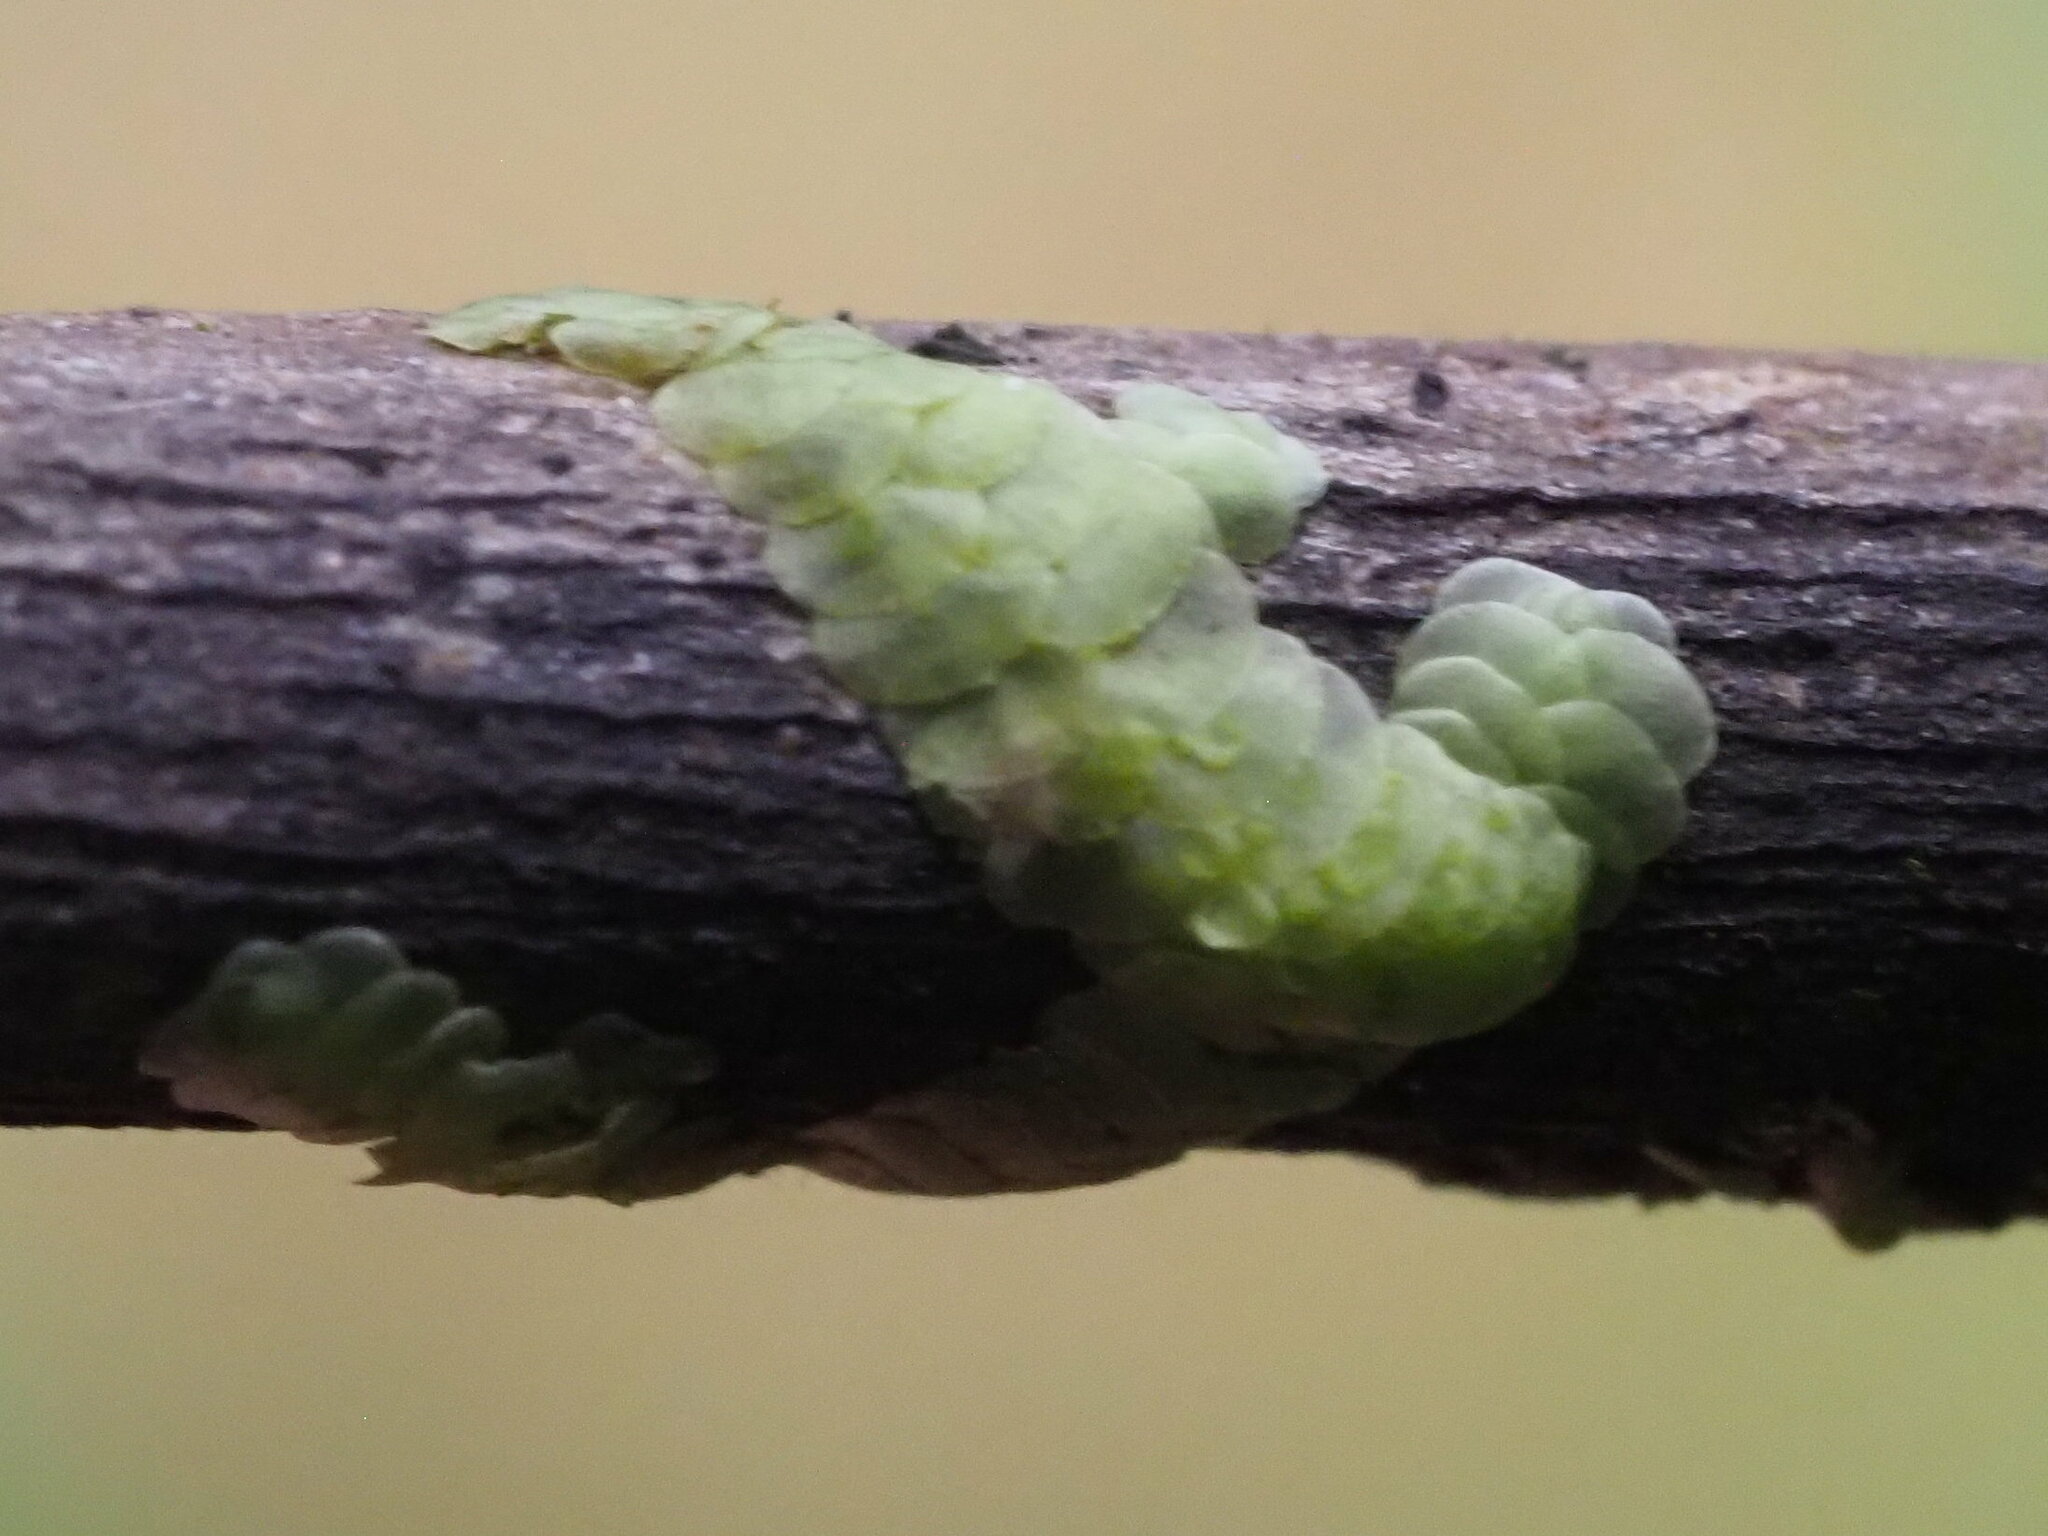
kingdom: Plantae
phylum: Marchantiophyta
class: Jungermanniopsida
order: Porellales
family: Radulaceae
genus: Radula
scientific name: Radula acutangula
